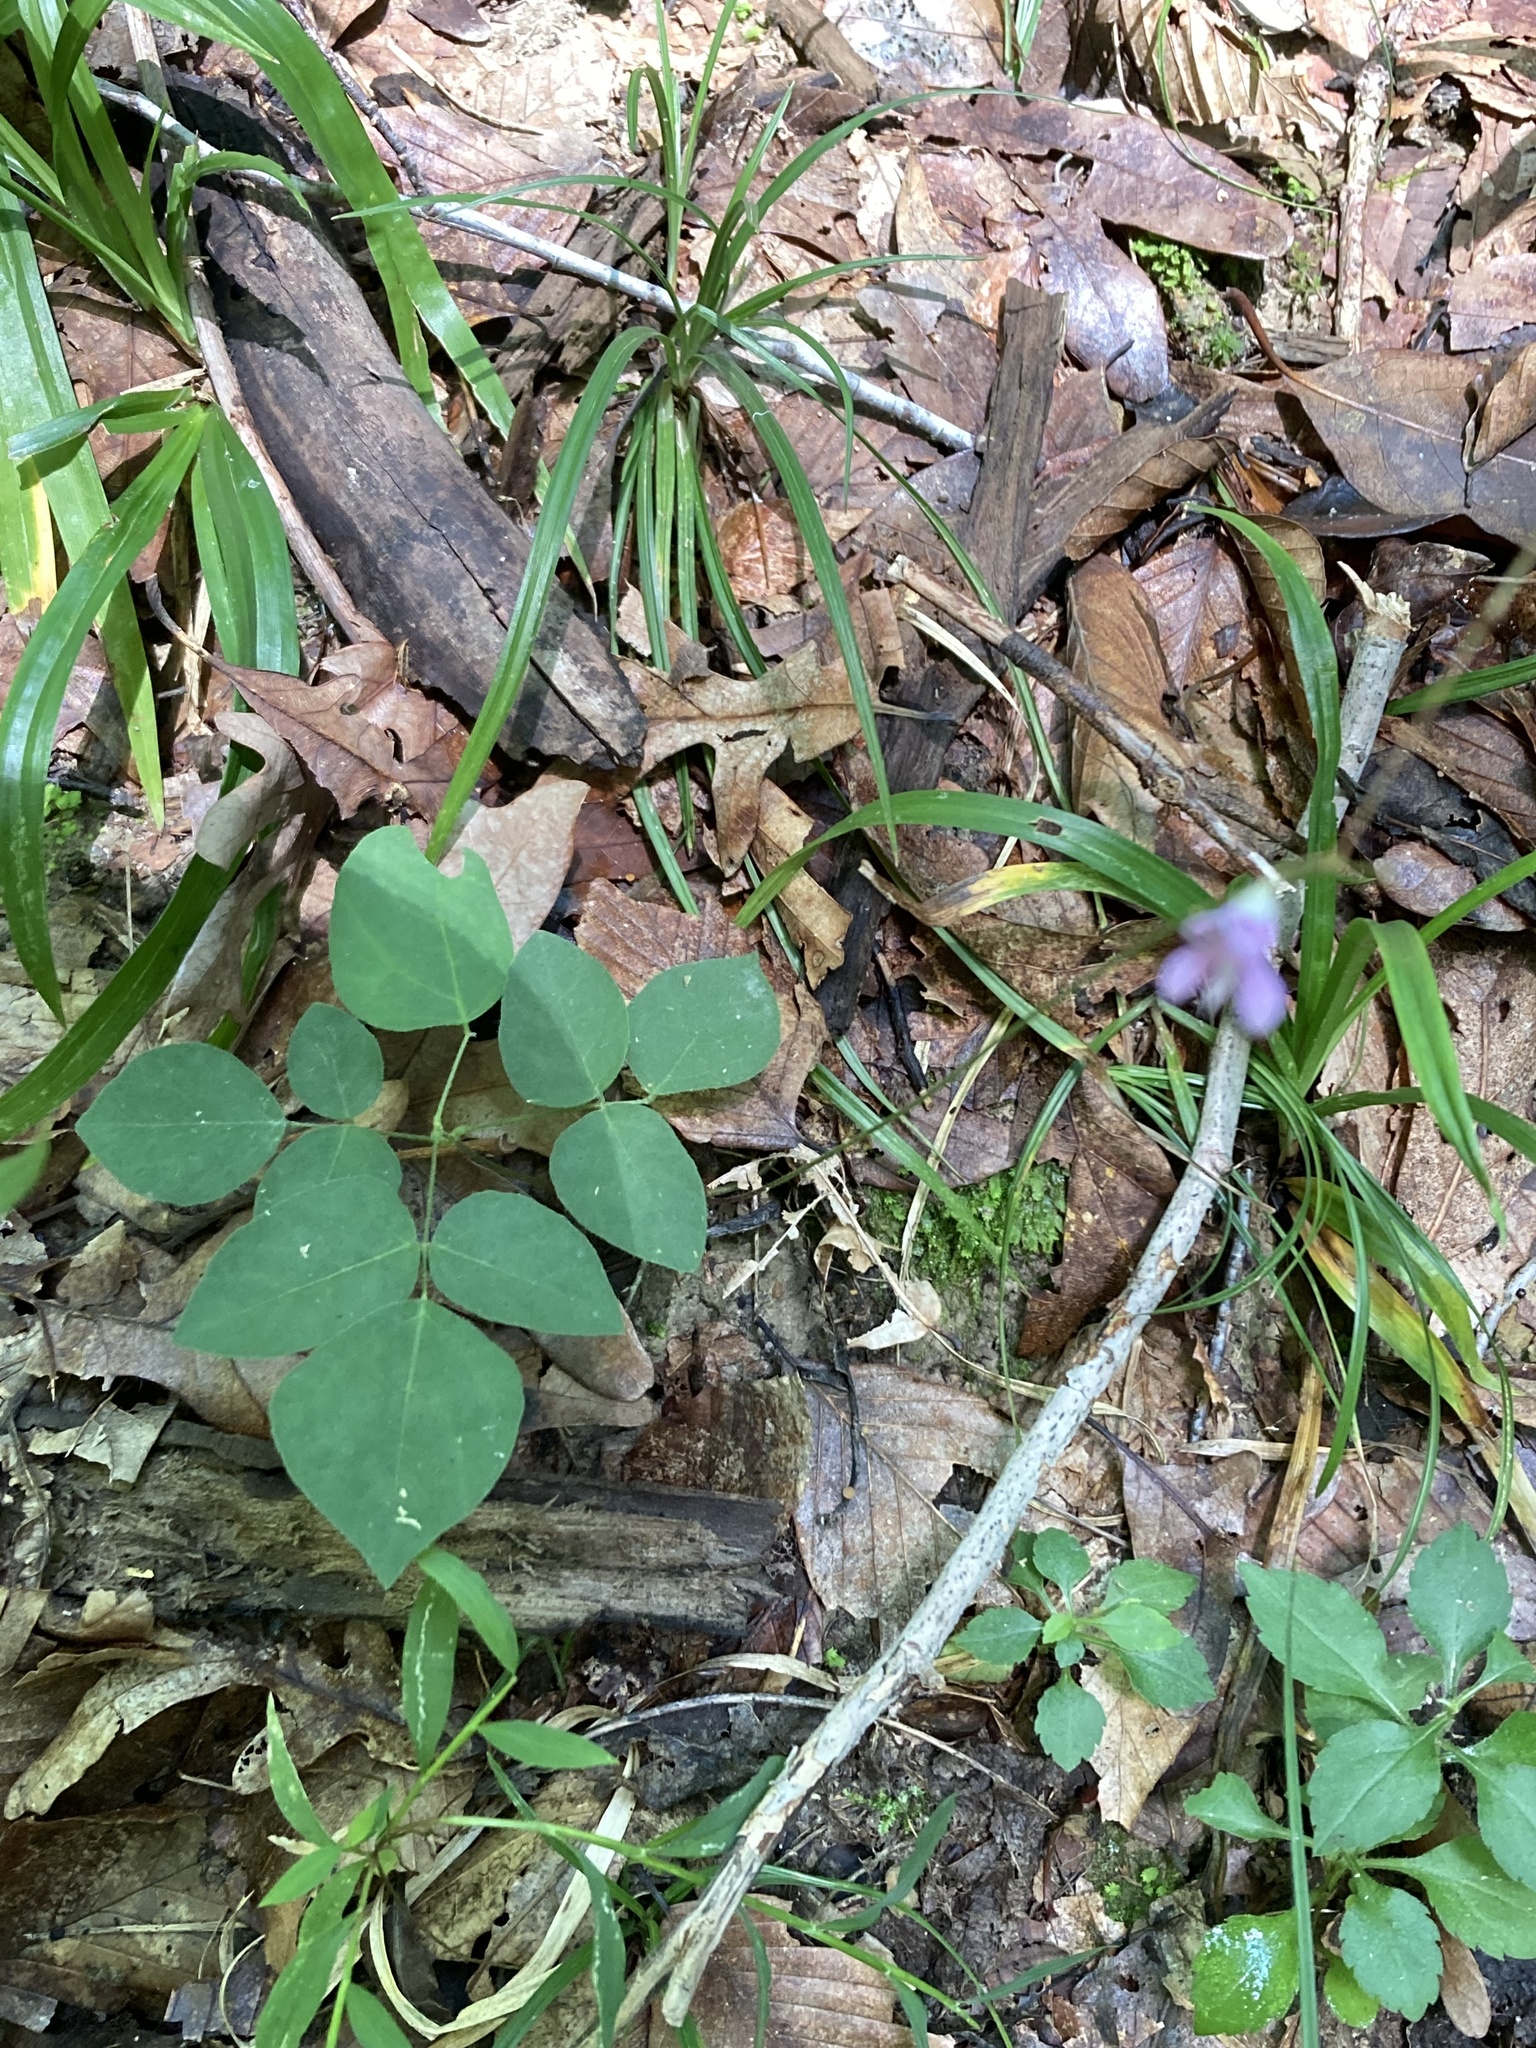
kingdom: Plantae
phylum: Tracheophyta
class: Magnoliopsida
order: Fabales
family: Fabaceae
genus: Hylodesmum
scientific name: Hylodesmum nudiflorum
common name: Bare-stemmed tick-trefoil
